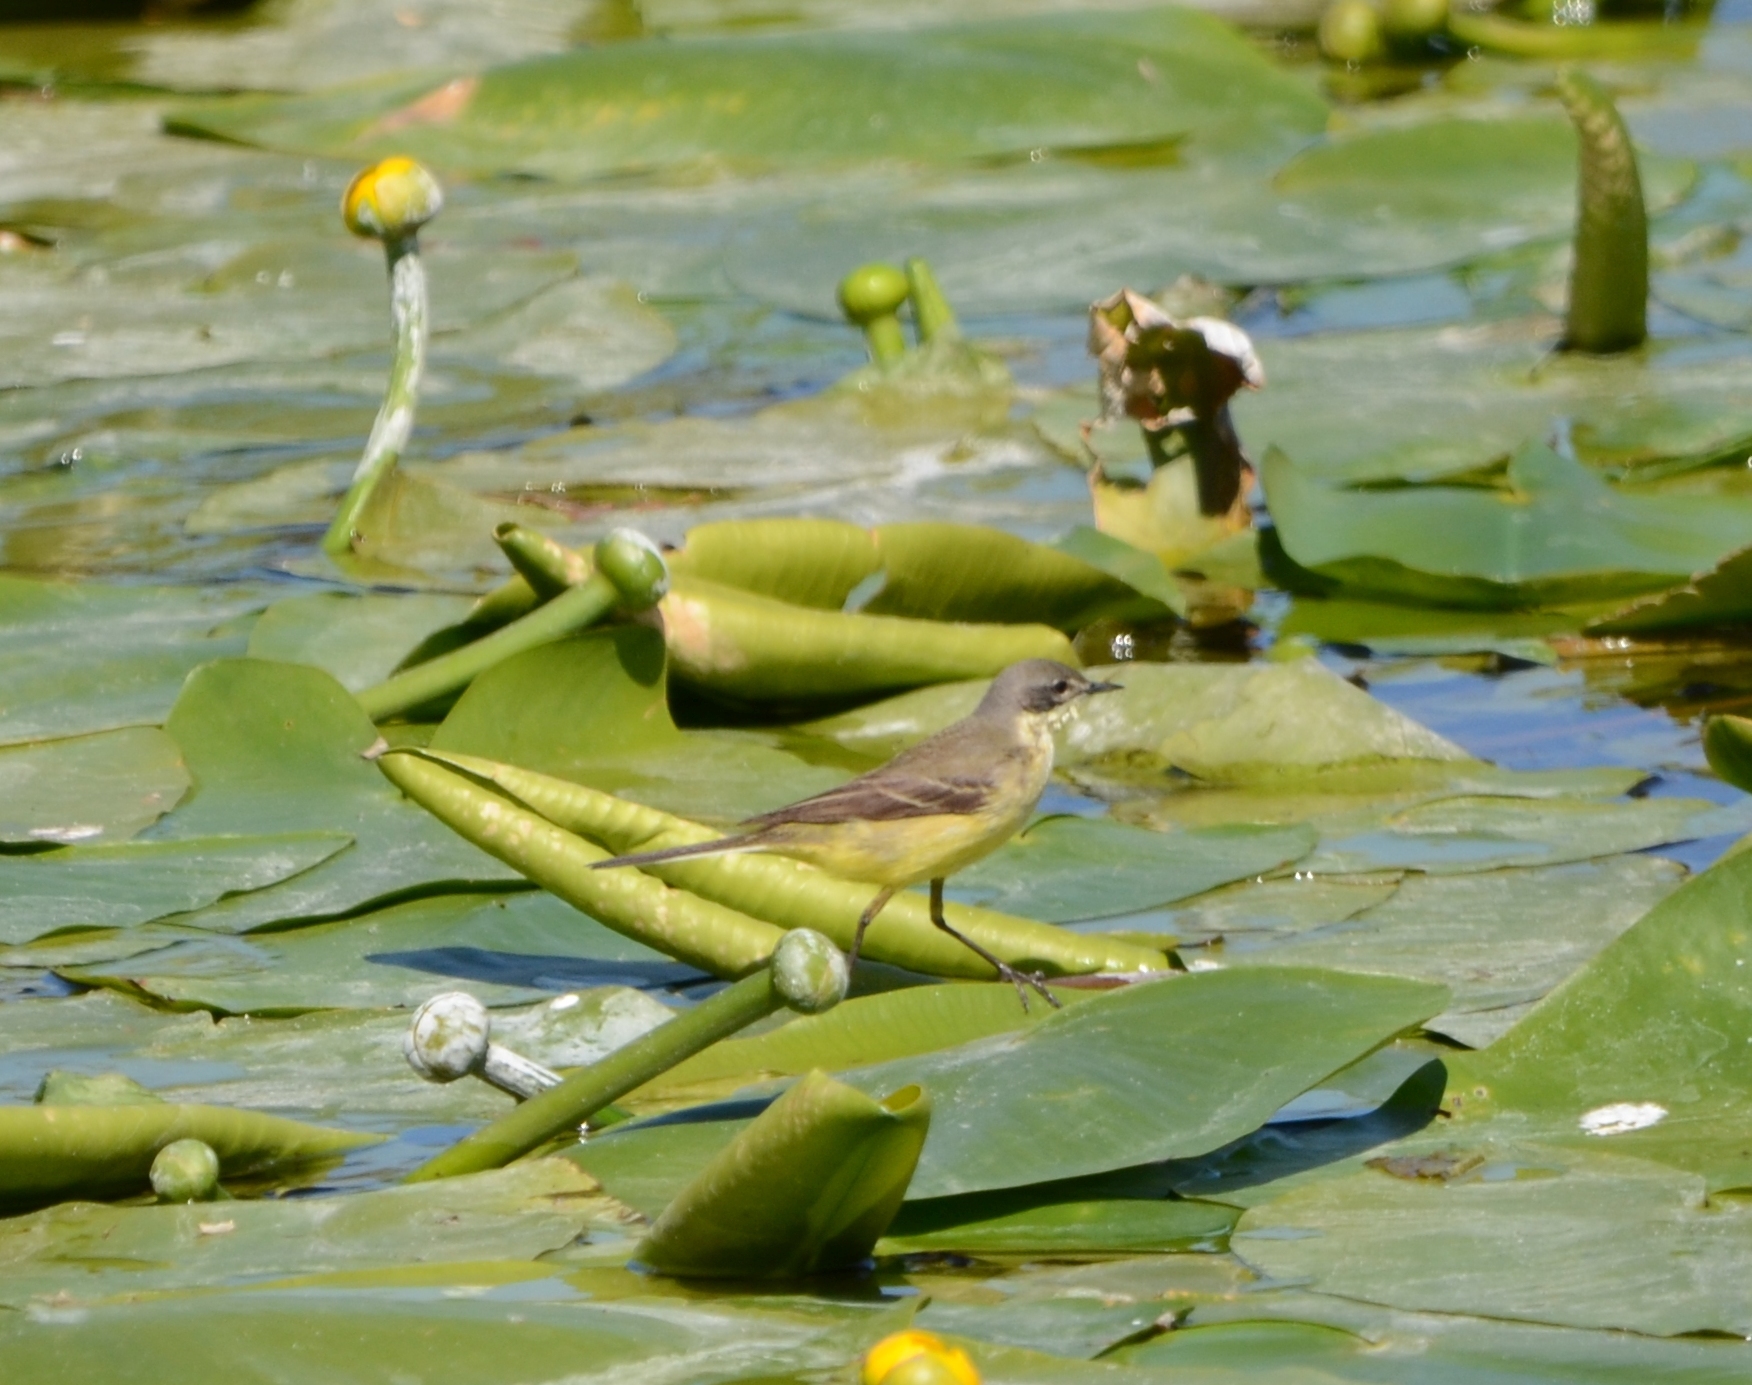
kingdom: Animalia
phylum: Chordata
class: Aves
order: Passeriformes
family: Motacillidae
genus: Motacilla
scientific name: Motacilla flava
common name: Western yellow wagtail
